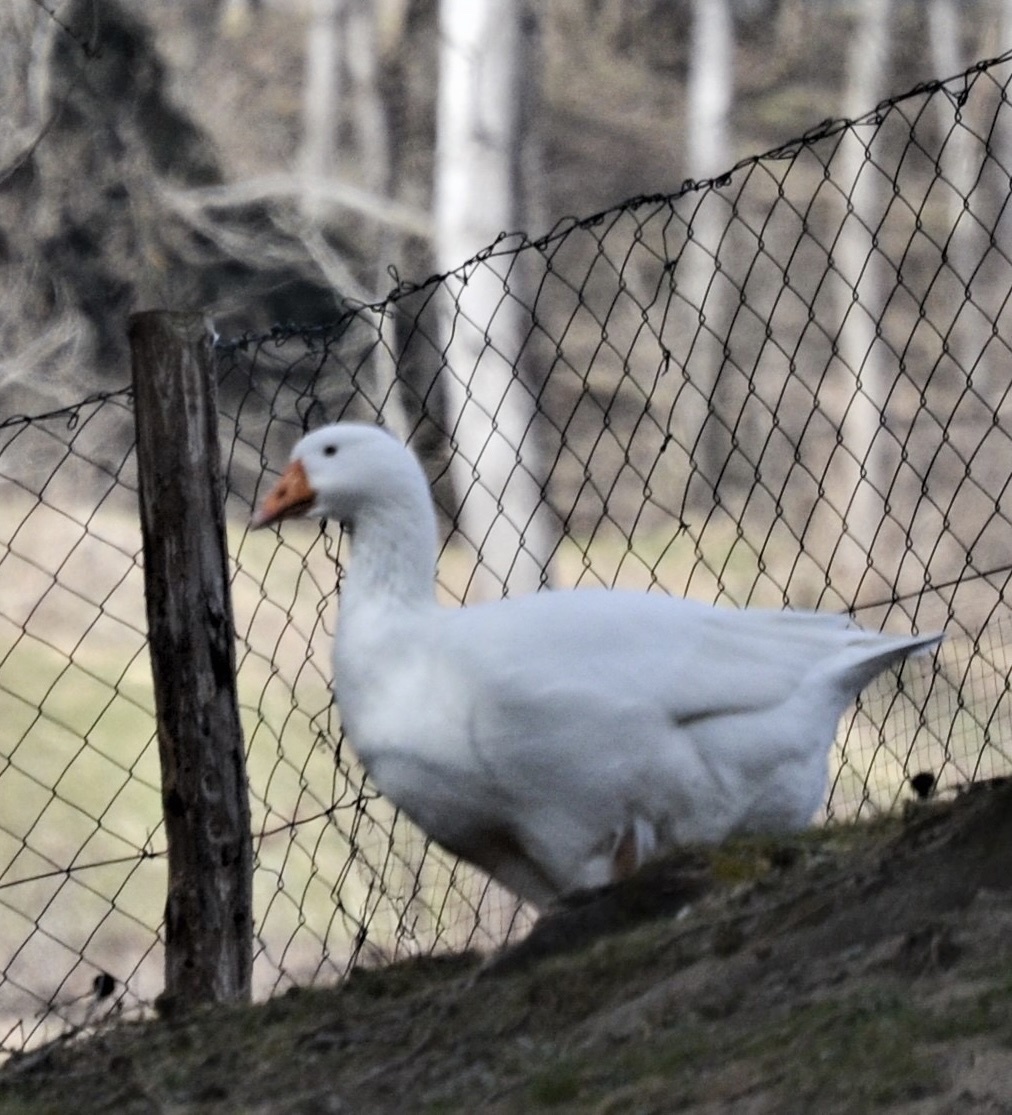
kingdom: Animalia
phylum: Chordata
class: Aves
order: Anseriformes
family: Anatidae
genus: Anser
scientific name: Anser anser
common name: Greylag goose
